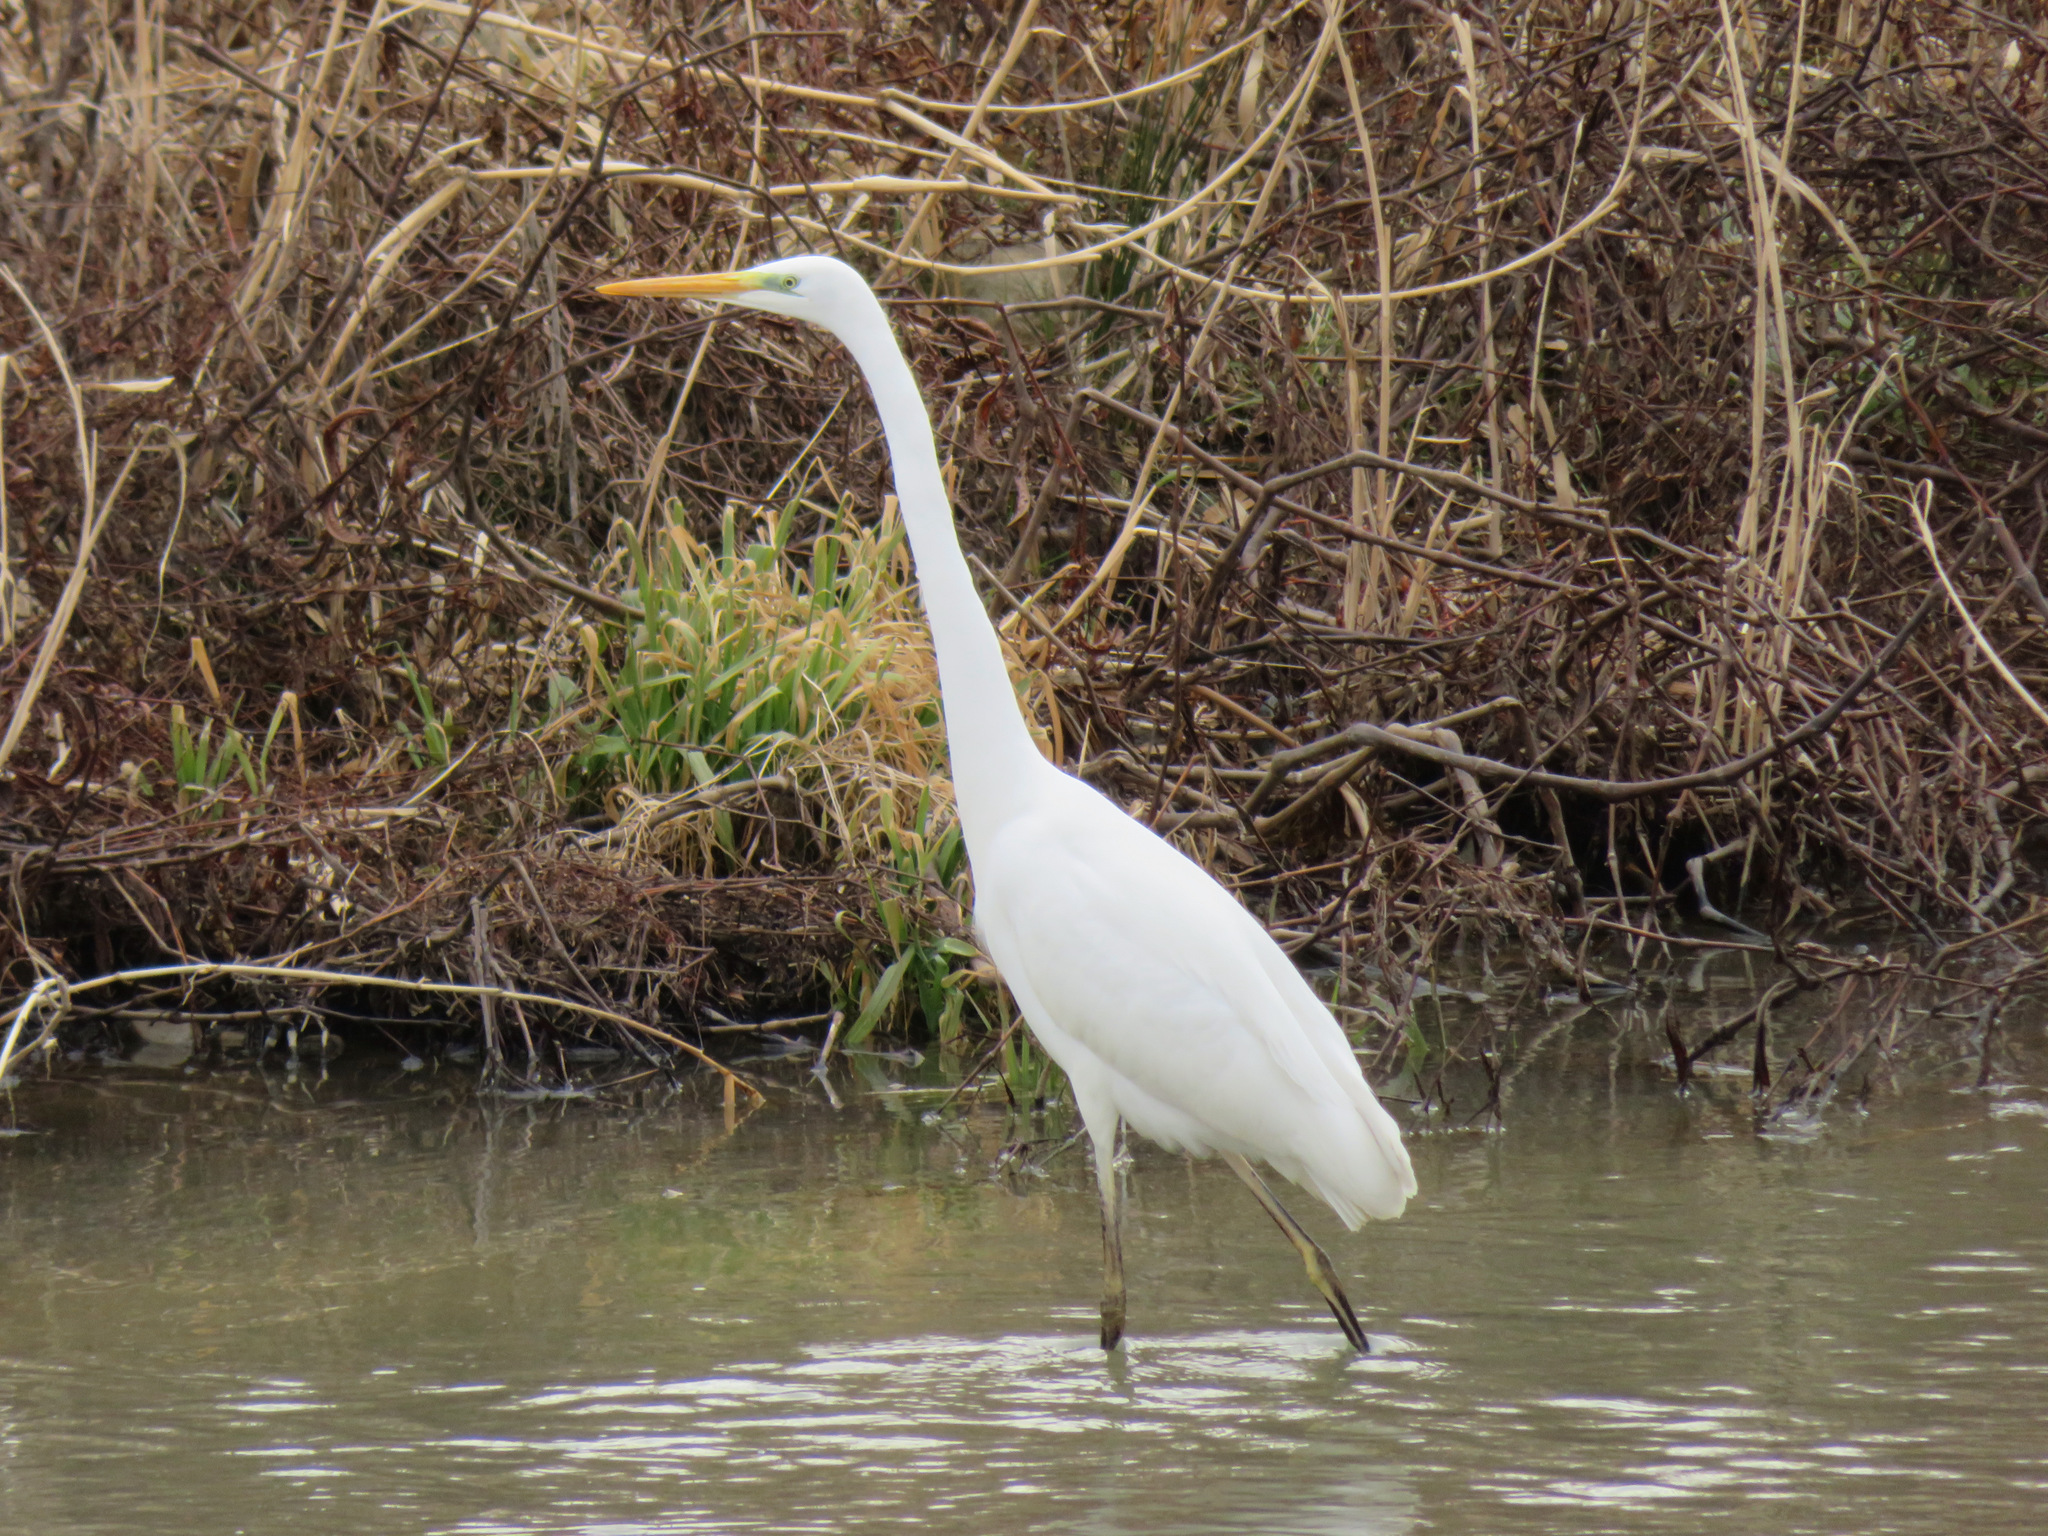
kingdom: Animalia
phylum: Chordata
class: Aves
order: Pelecaniformes
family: Ardeidae
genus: Ardea
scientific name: Ardea alba
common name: Great egret
